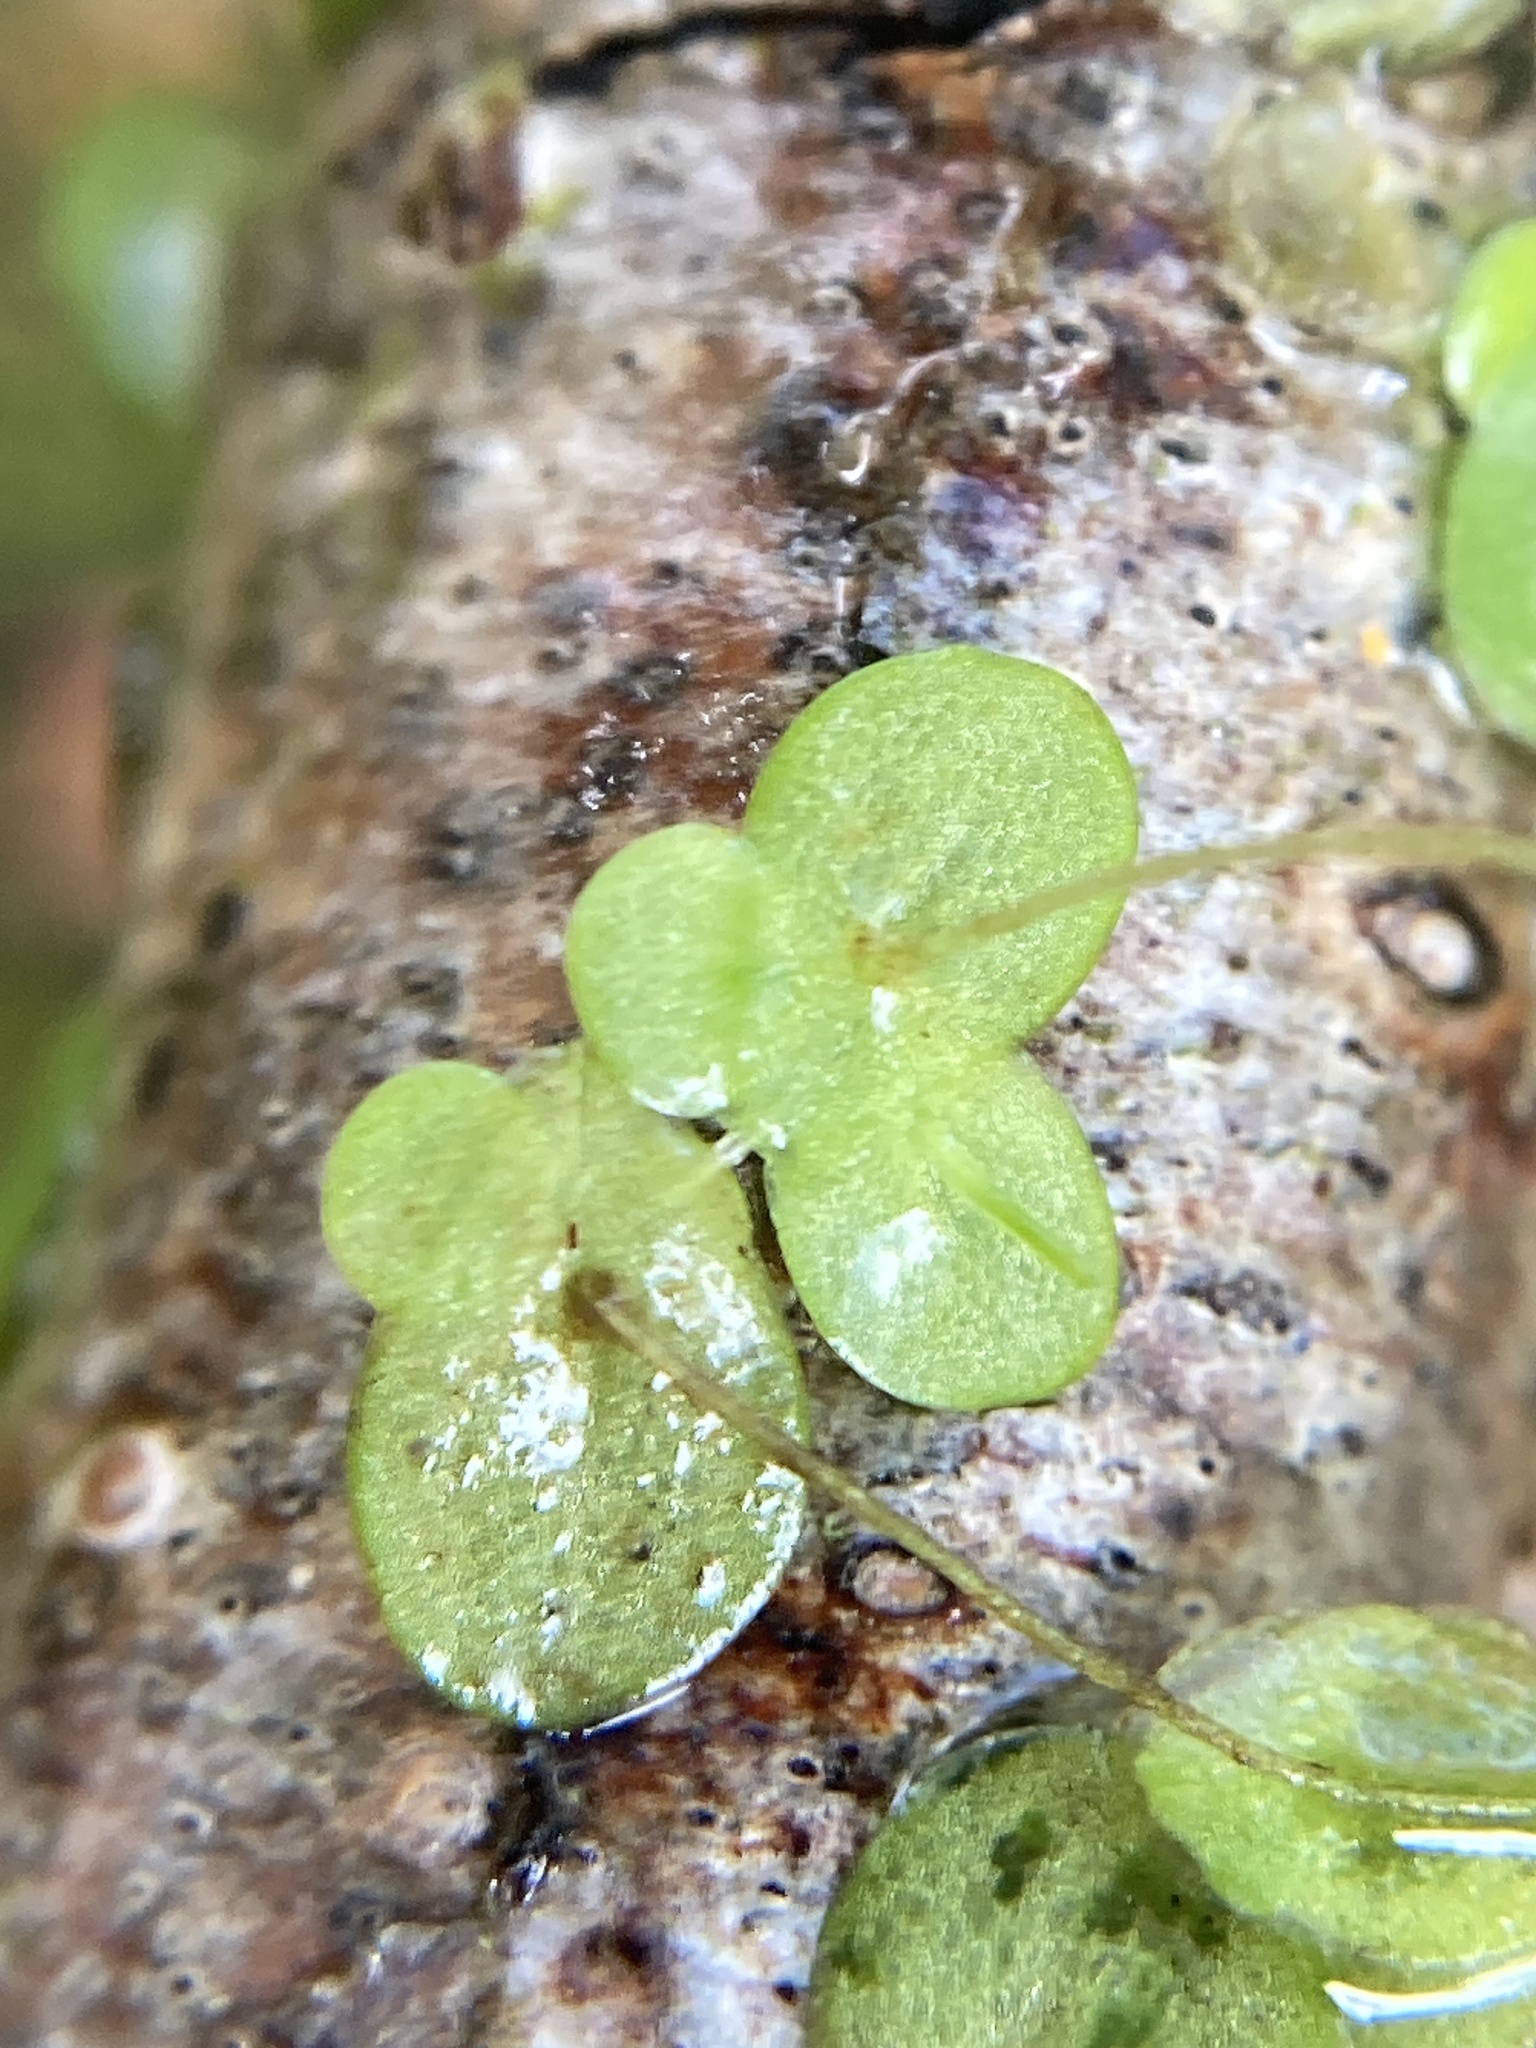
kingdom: Plantae
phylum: Tracheophyta
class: Liliopsida
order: Alismatales
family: Araceae
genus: Lemna
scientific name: Lemna minor
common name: Common duckweed
